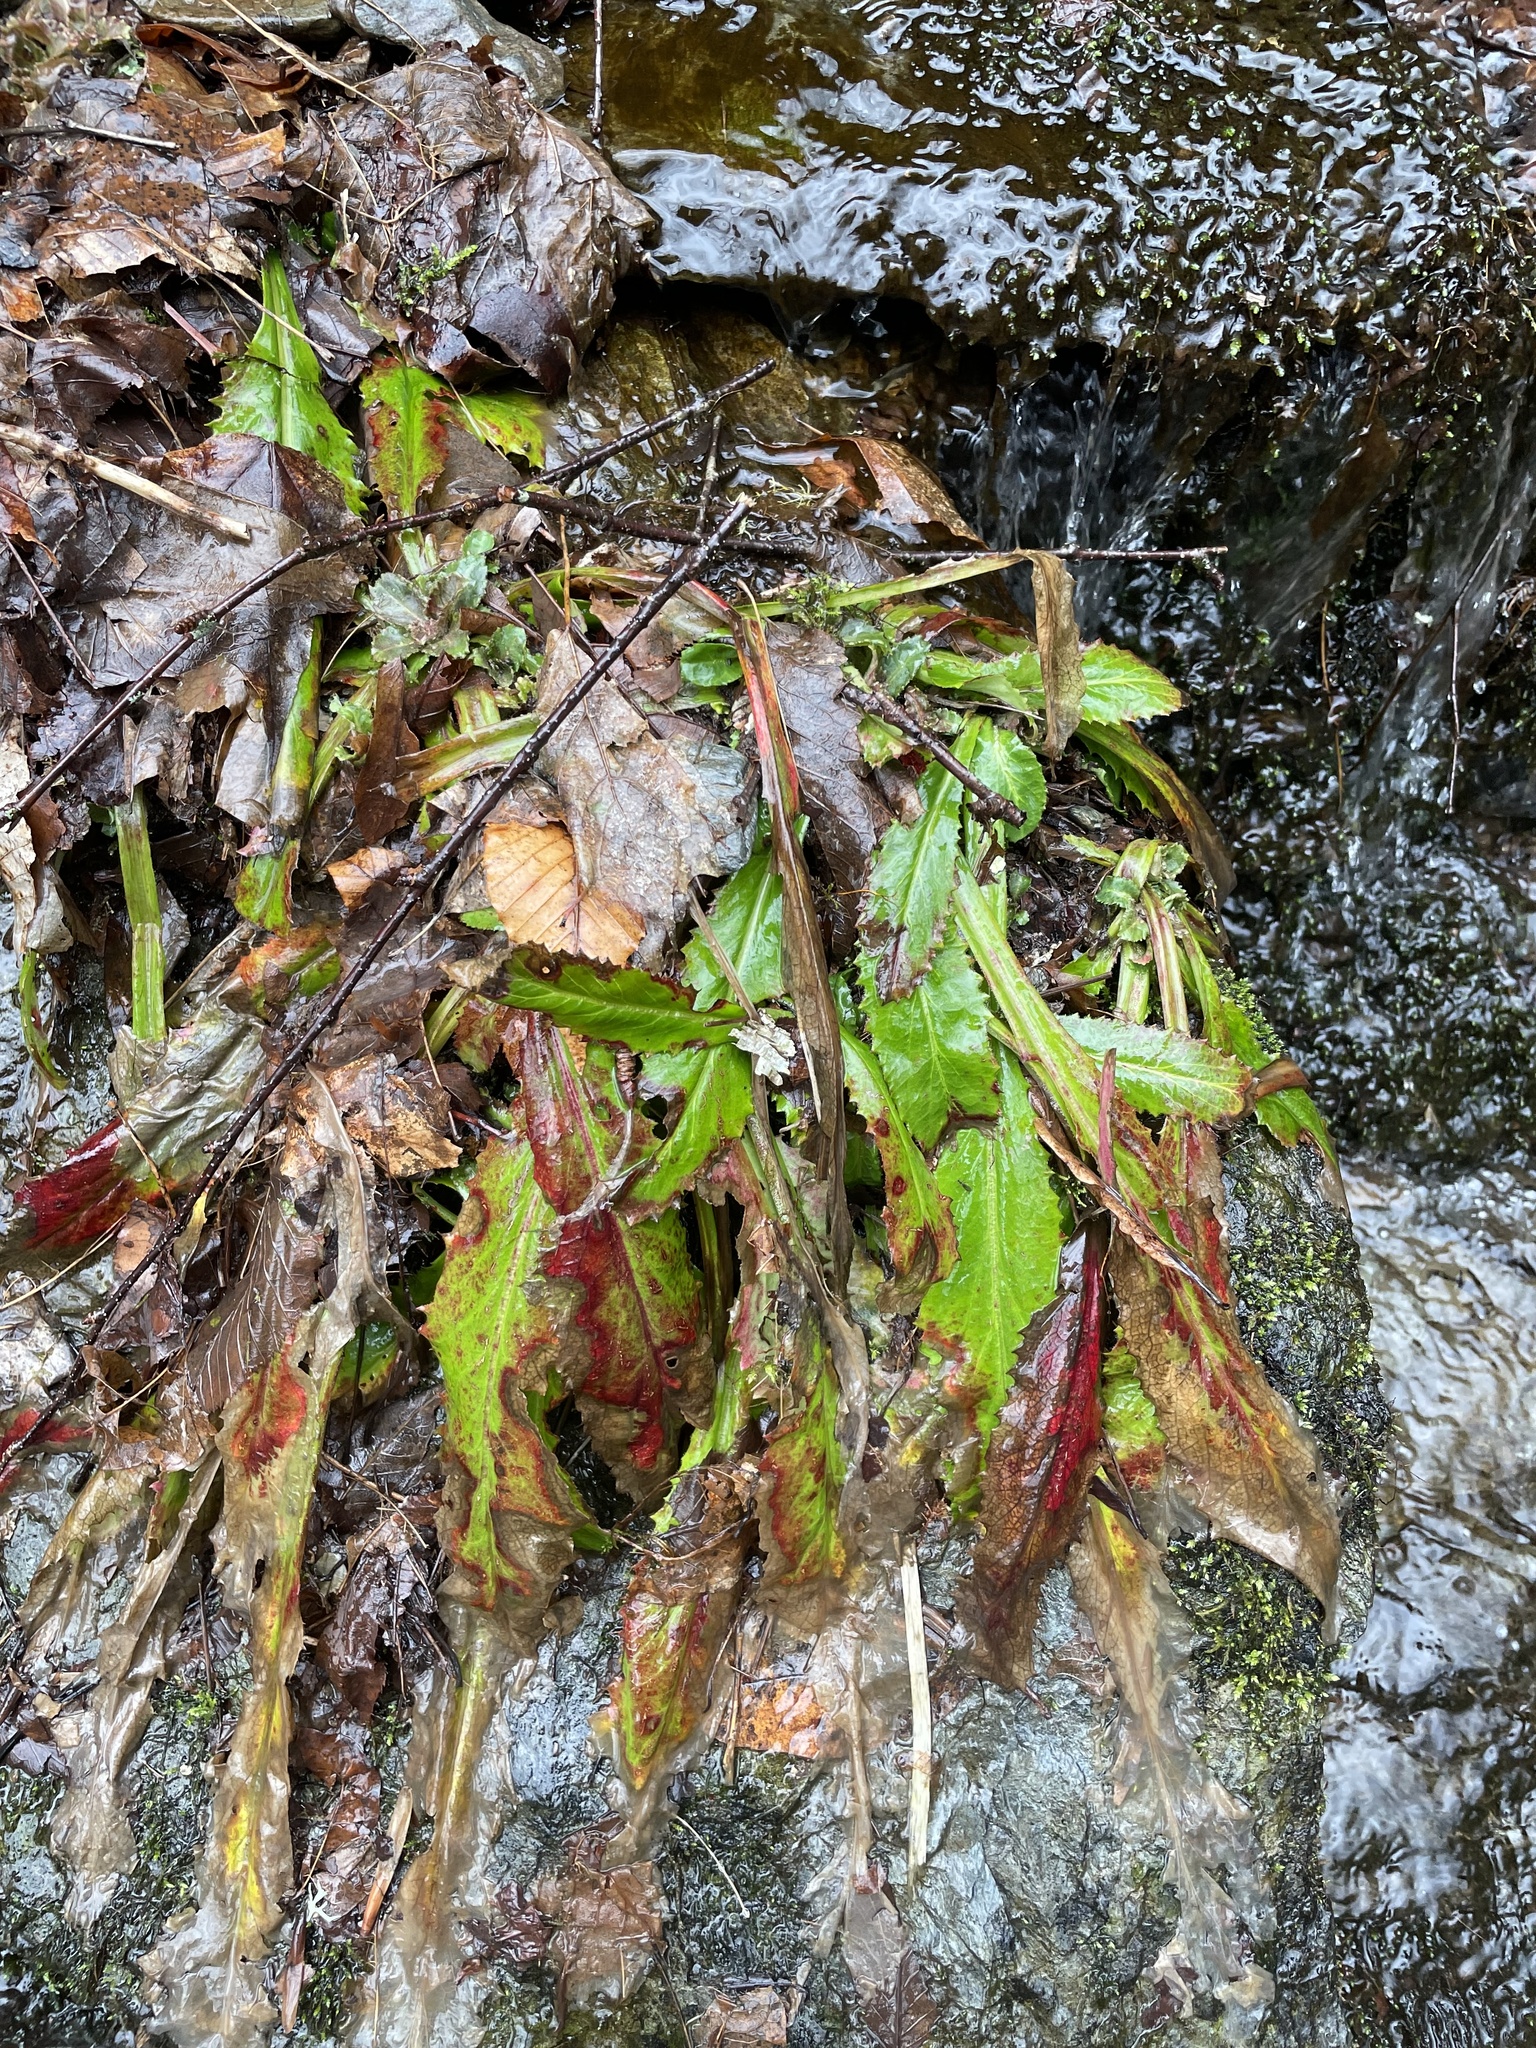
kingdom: Plantae
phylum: Tracheophyta
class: Liliopsida
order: Poales
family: Cyperaceae
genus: Carex
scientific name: Carex plantaginea
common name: Plantain-leaved sedge
